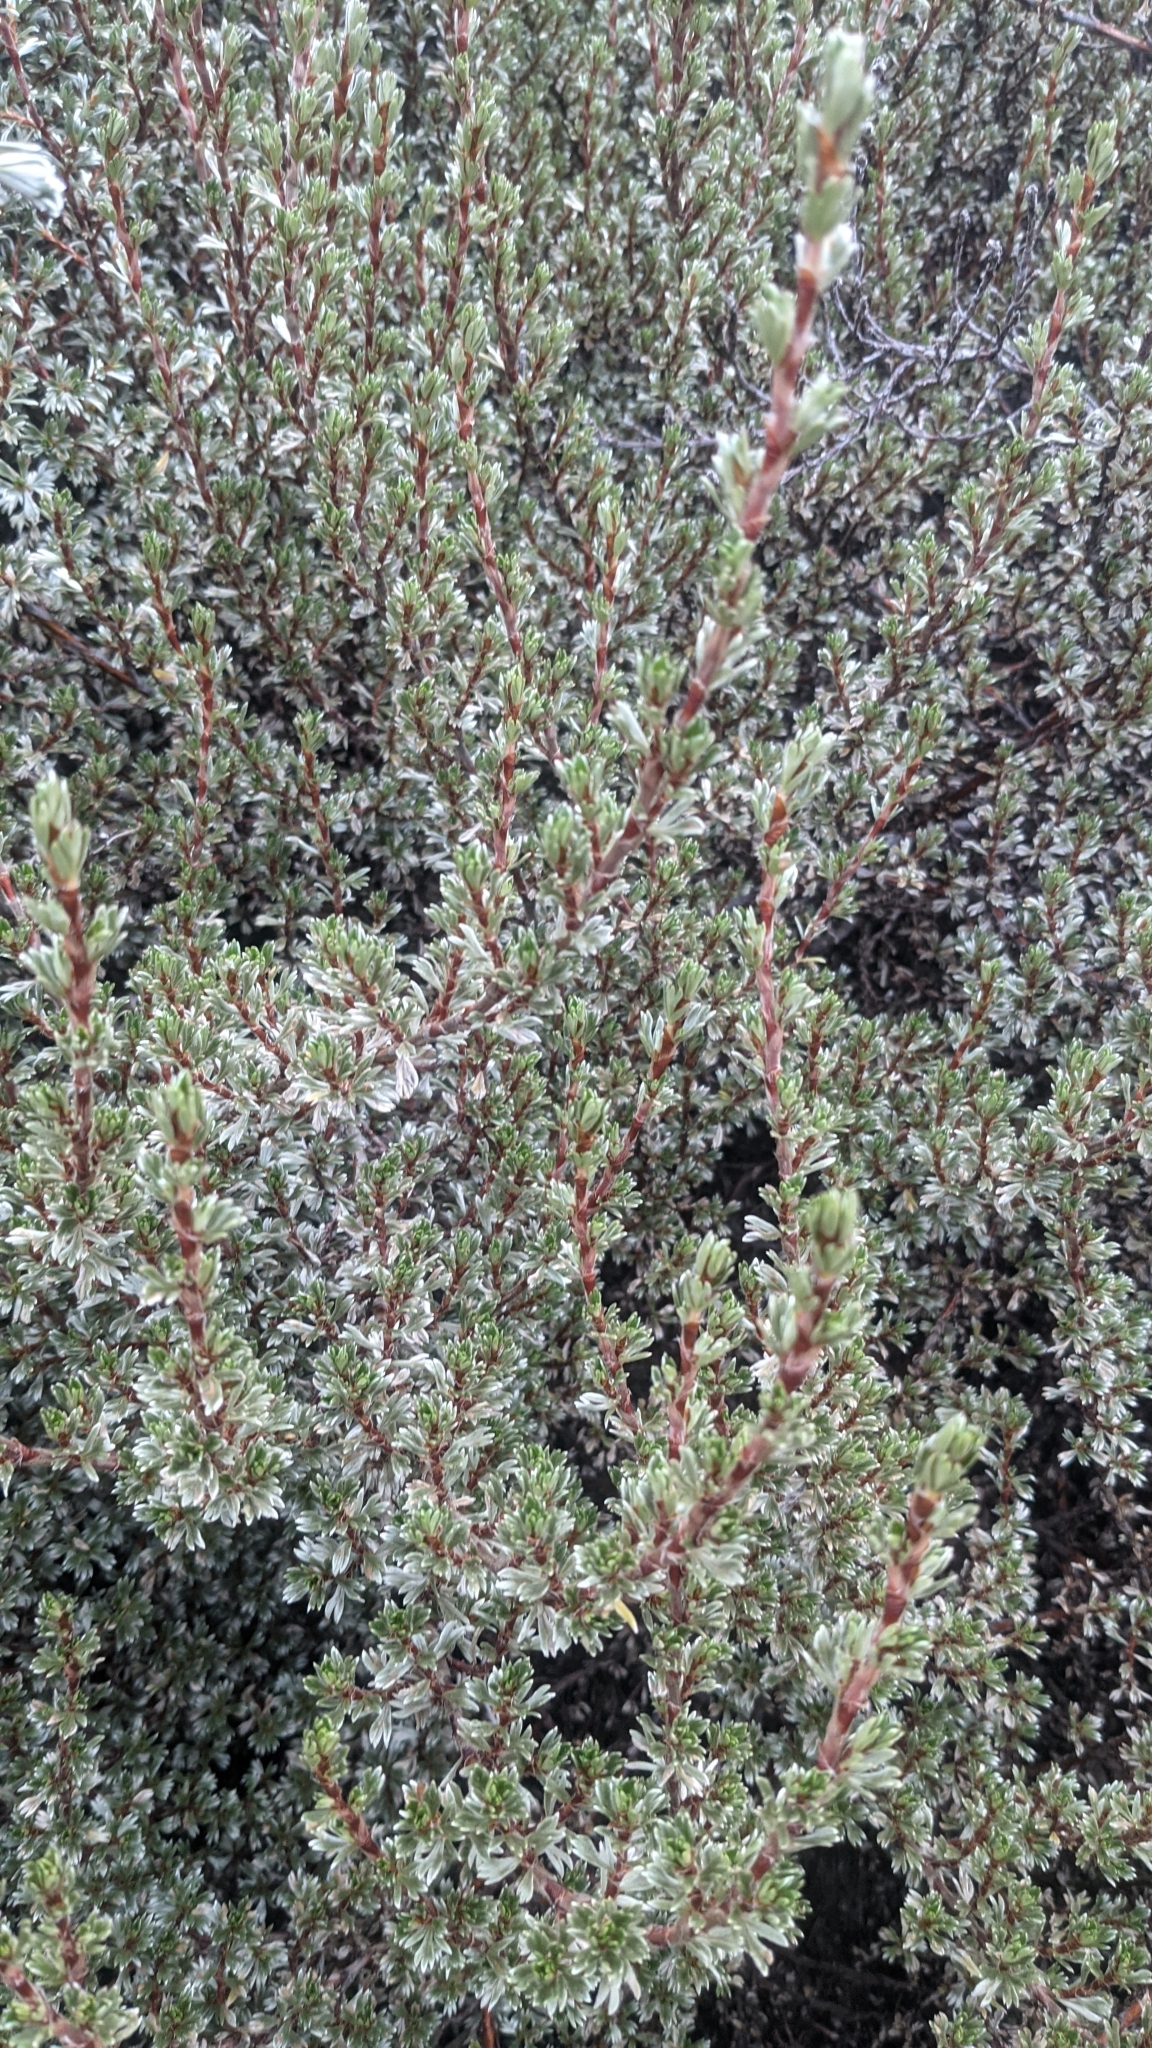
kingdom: Plantae
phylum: Tracheophyta
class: Magnoliopsida
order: Rosales
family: Rosaceae
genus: Alchemilla
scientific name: Alchemilla argyrophylla
